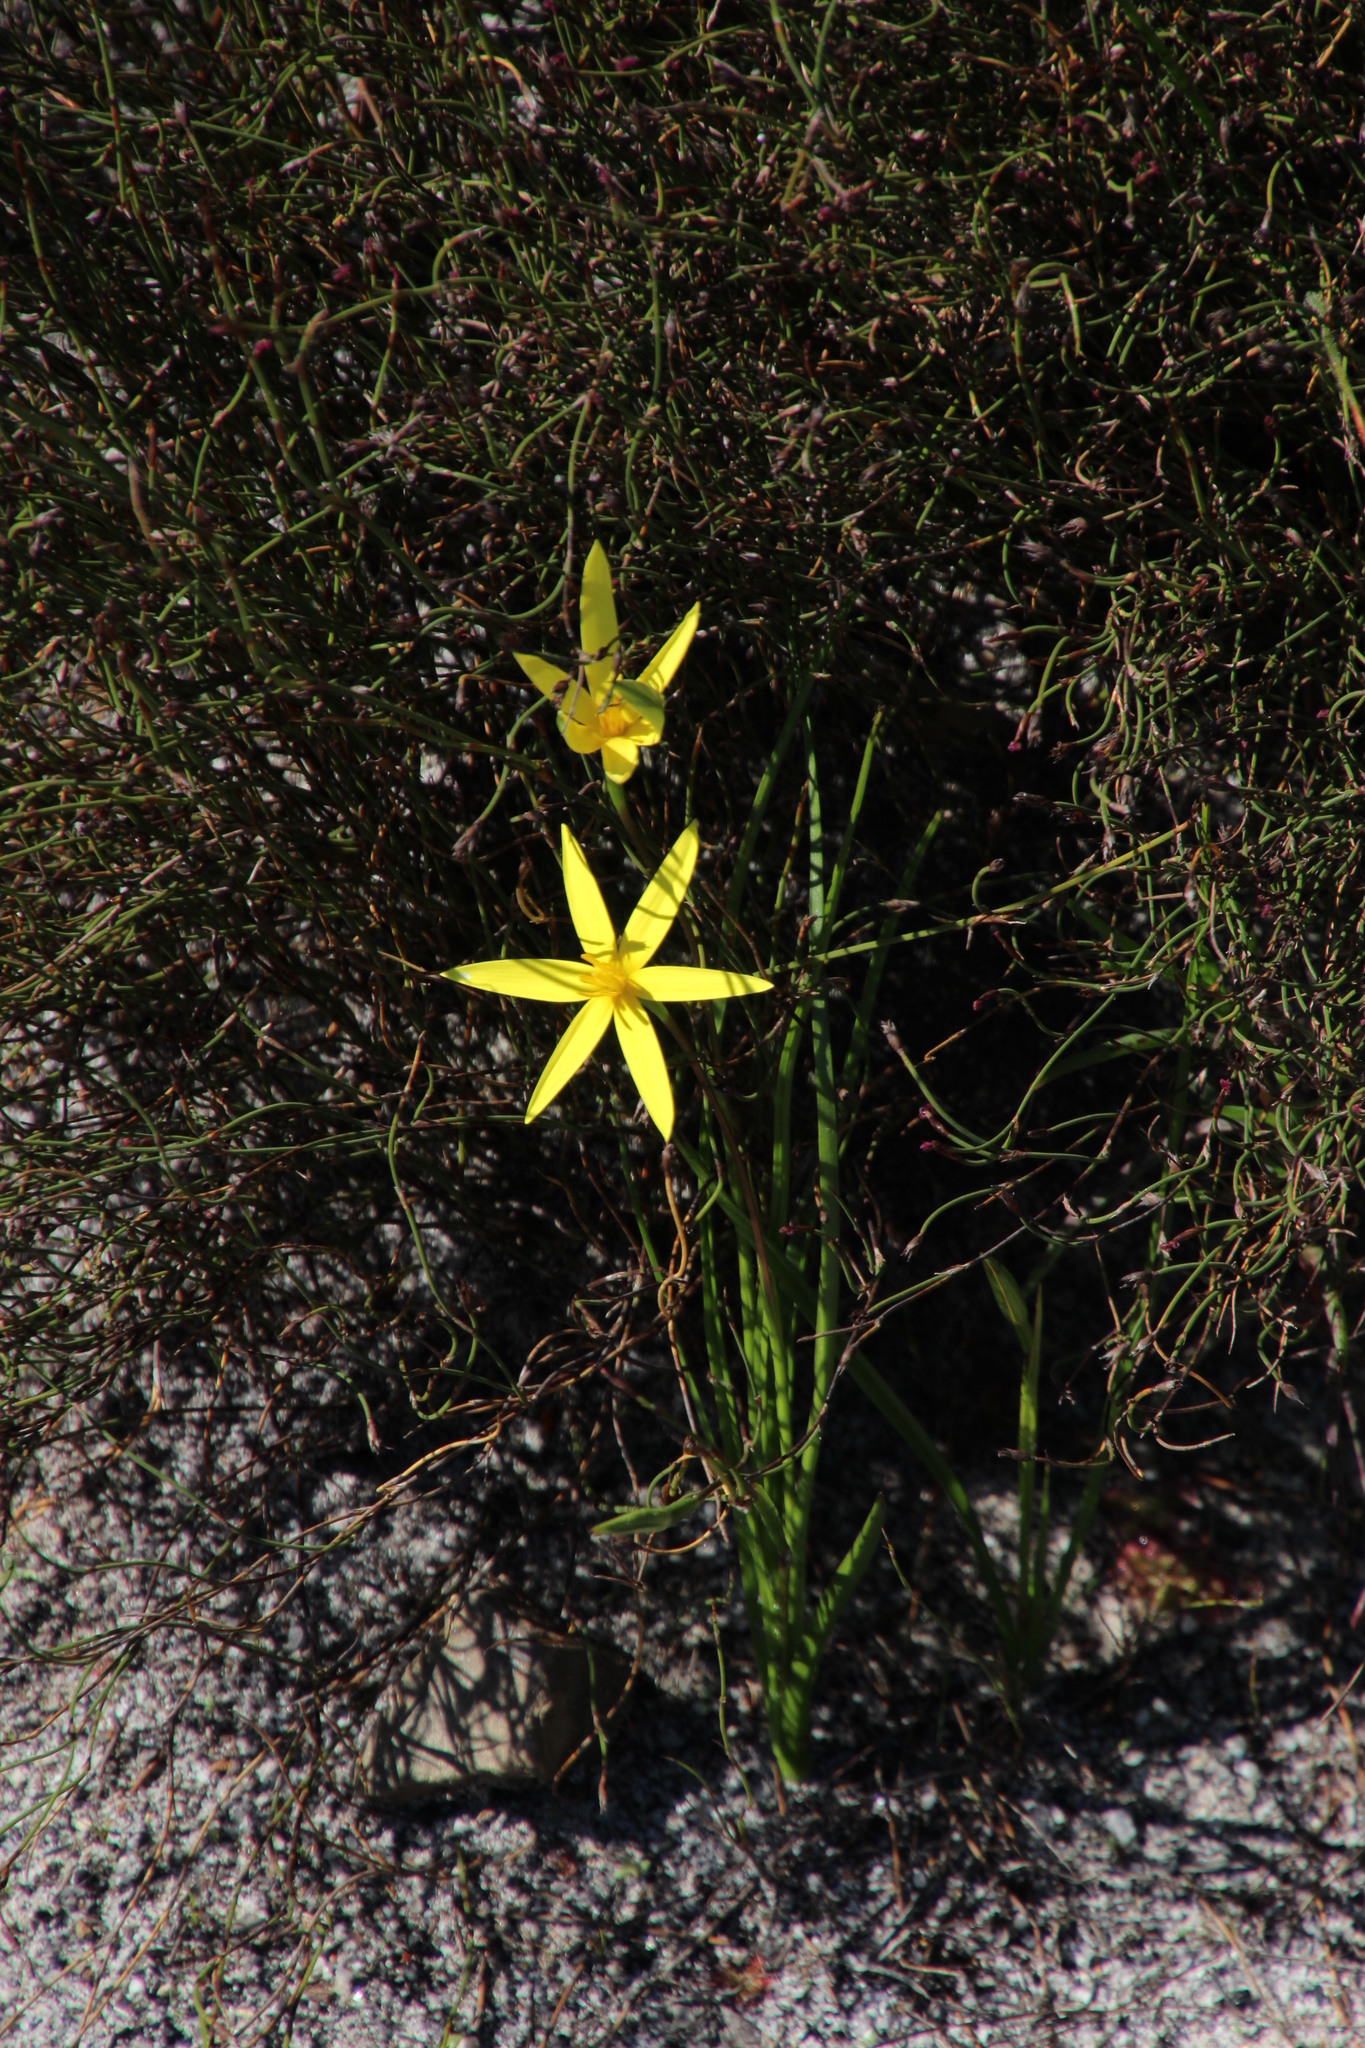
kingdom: Plantae
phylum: Tracheophyta
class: Liliopsida
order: Asparagales
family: Hypoxidaceae
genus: Pauridia
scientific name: Pauridia capensis
